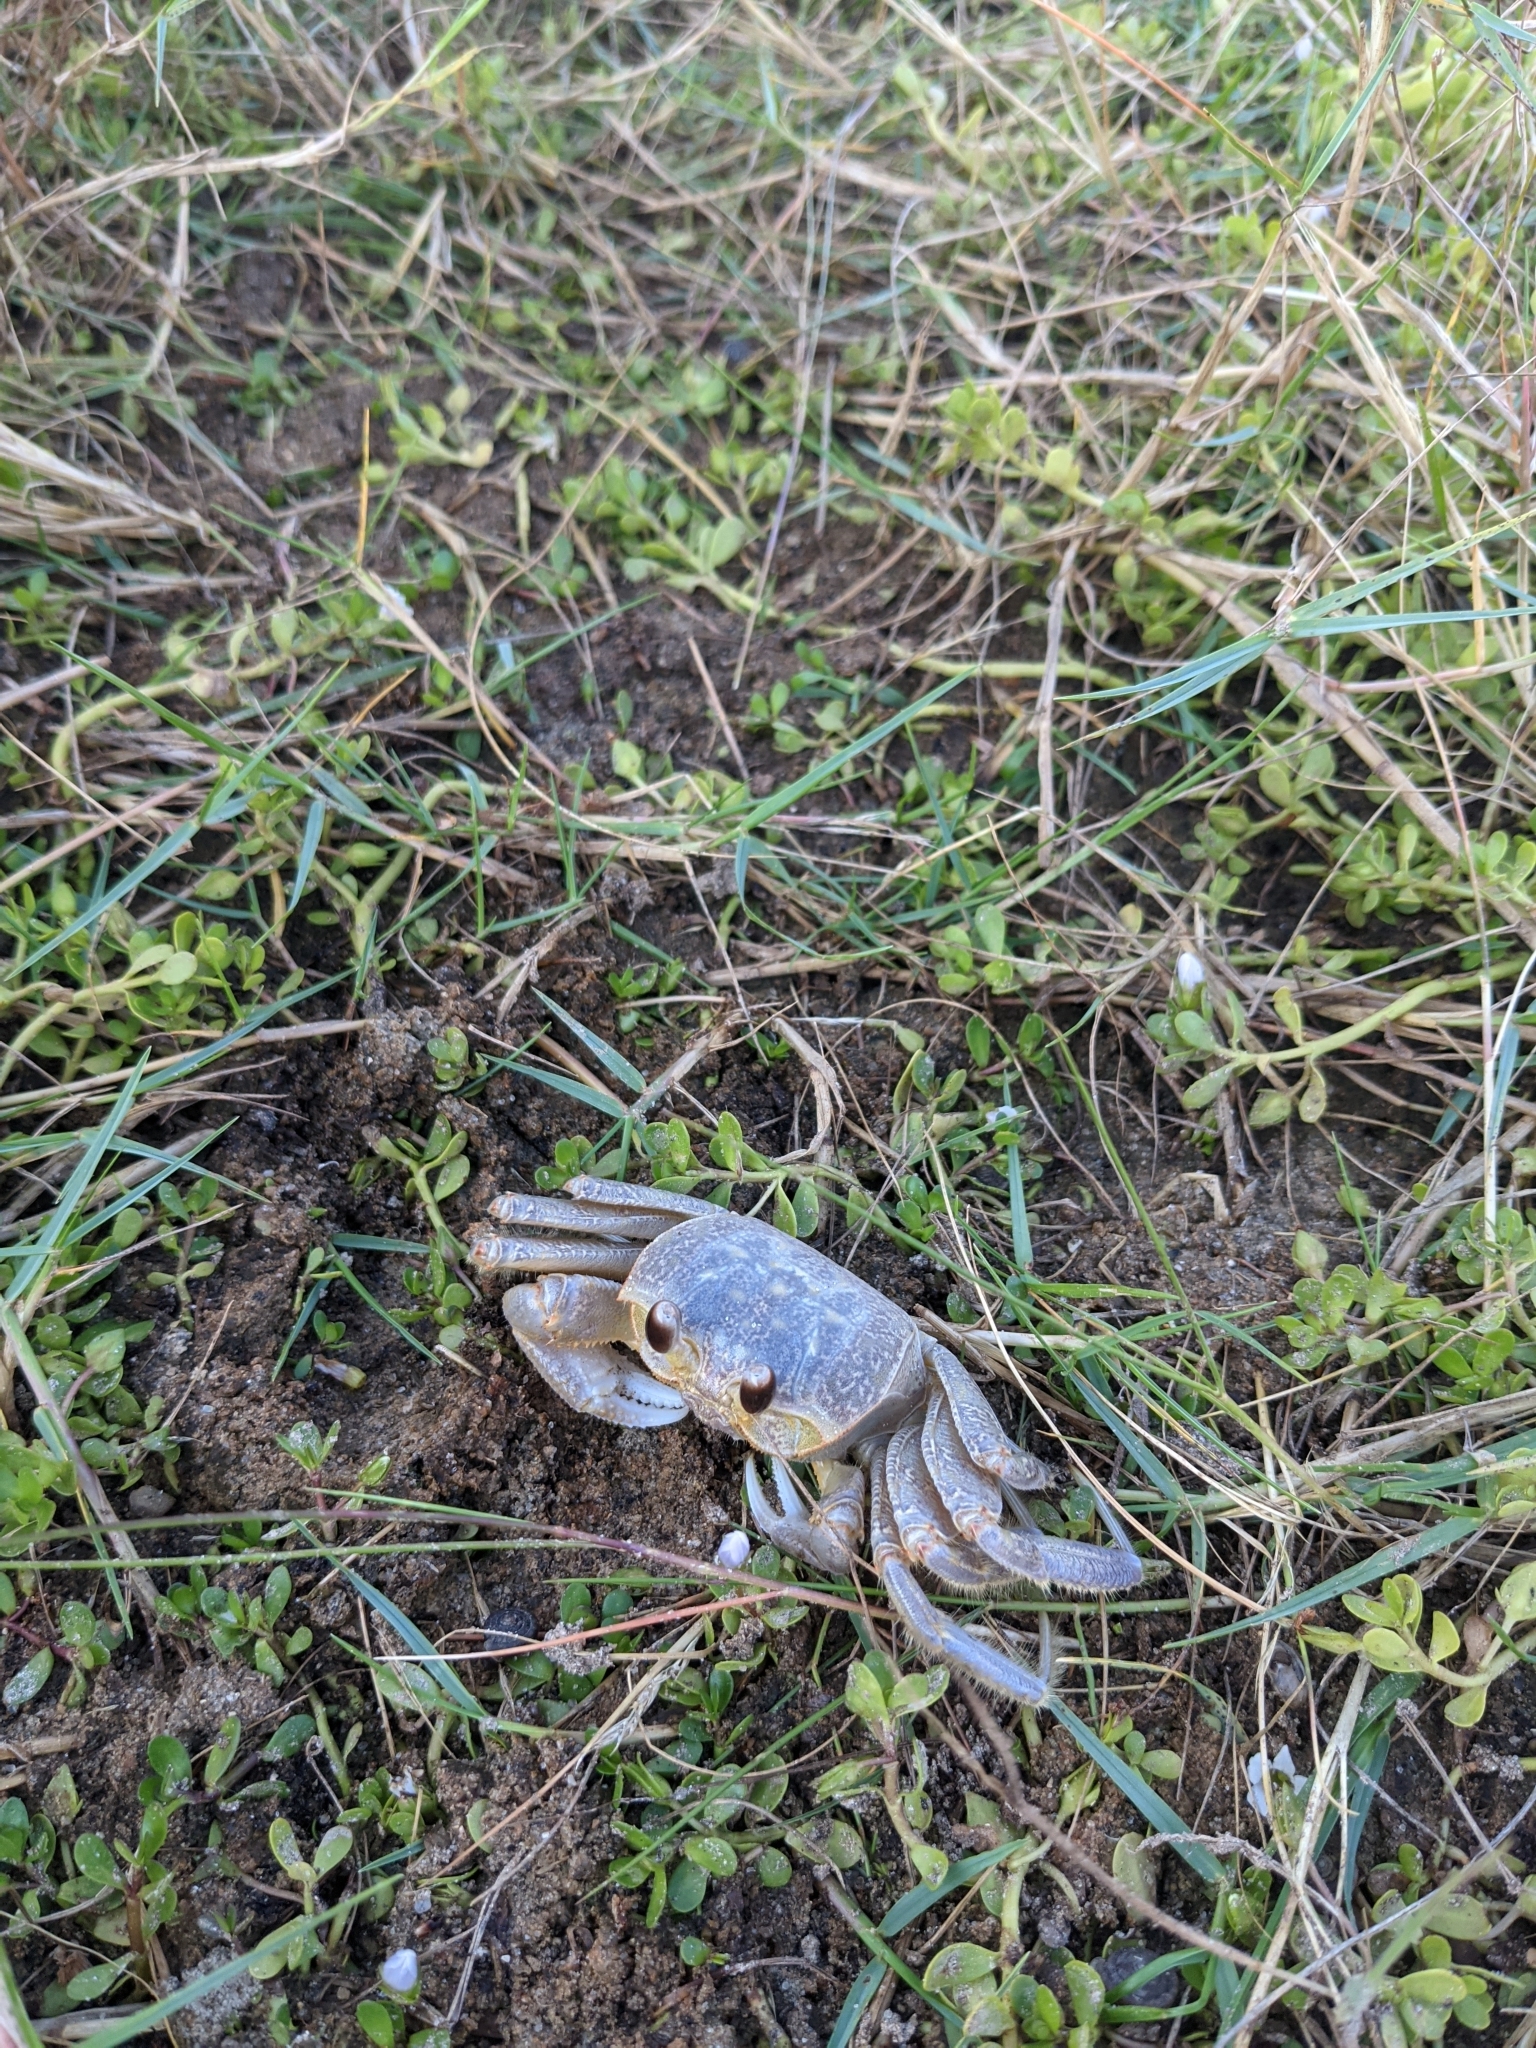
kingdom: Animalia
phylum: Arthropoda
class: Malacostraca
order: Decapoda
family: Ocypodidae
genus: Ocypode
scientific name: Ocypode quadrata
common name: Ghost crab
